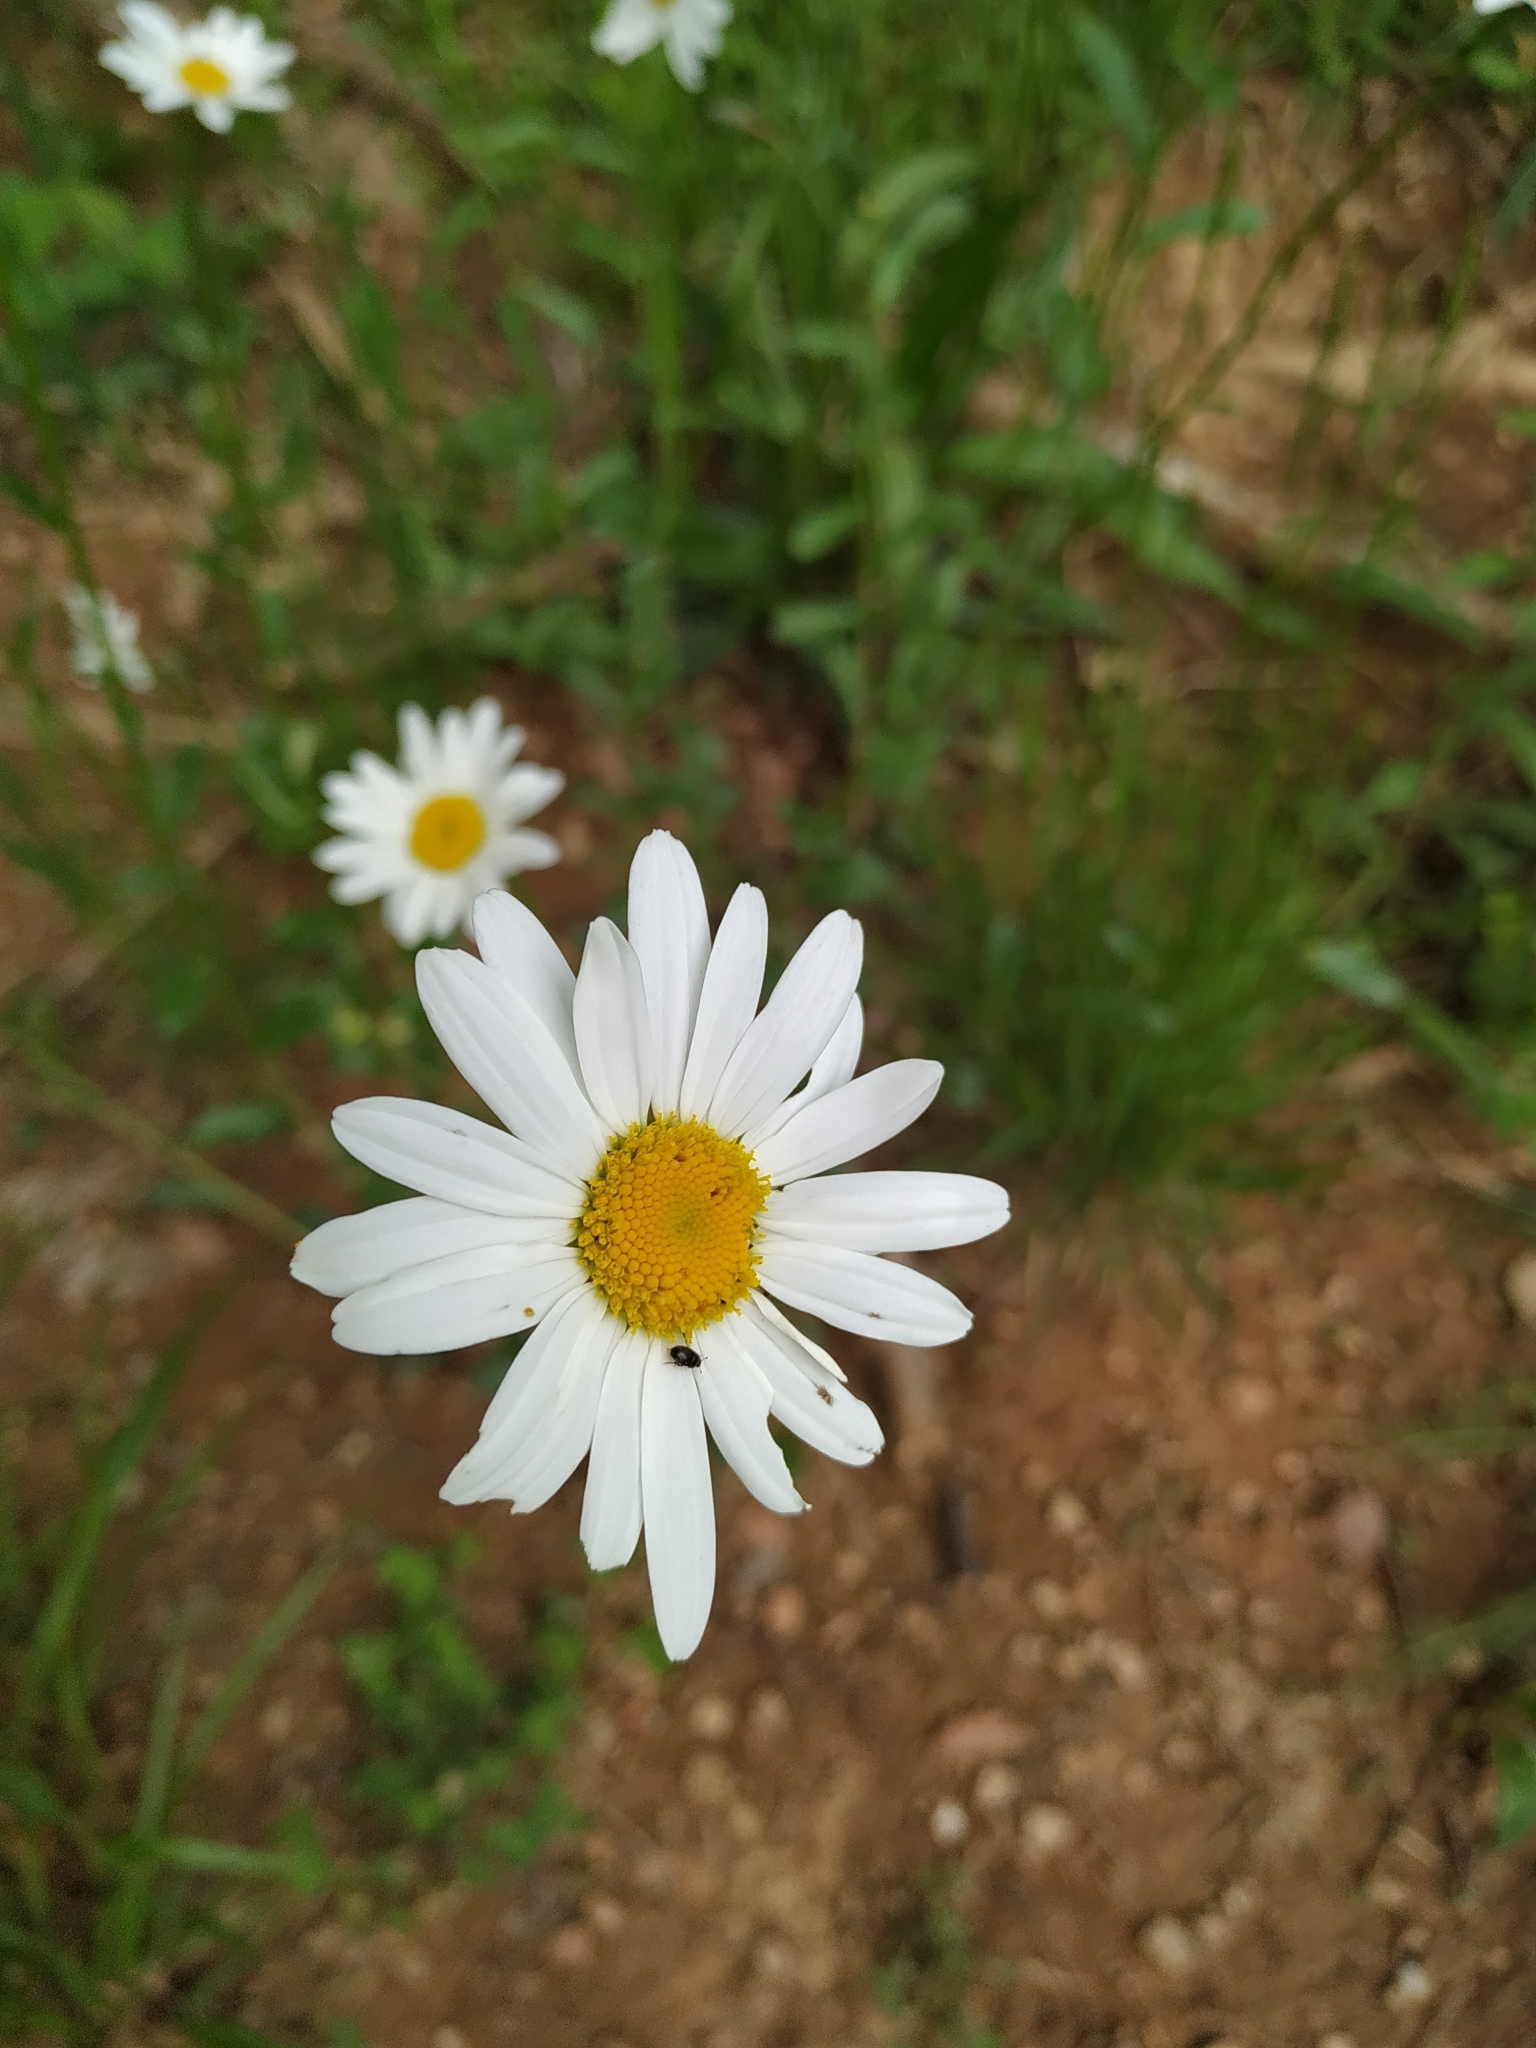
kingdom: Plantae
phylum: Tracheophyta
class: Magnoliopsida
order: Asterales
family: Asteraceae
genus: Leucanthemum
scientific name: Leucanthemum vulgare
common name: Oxeye daisy
